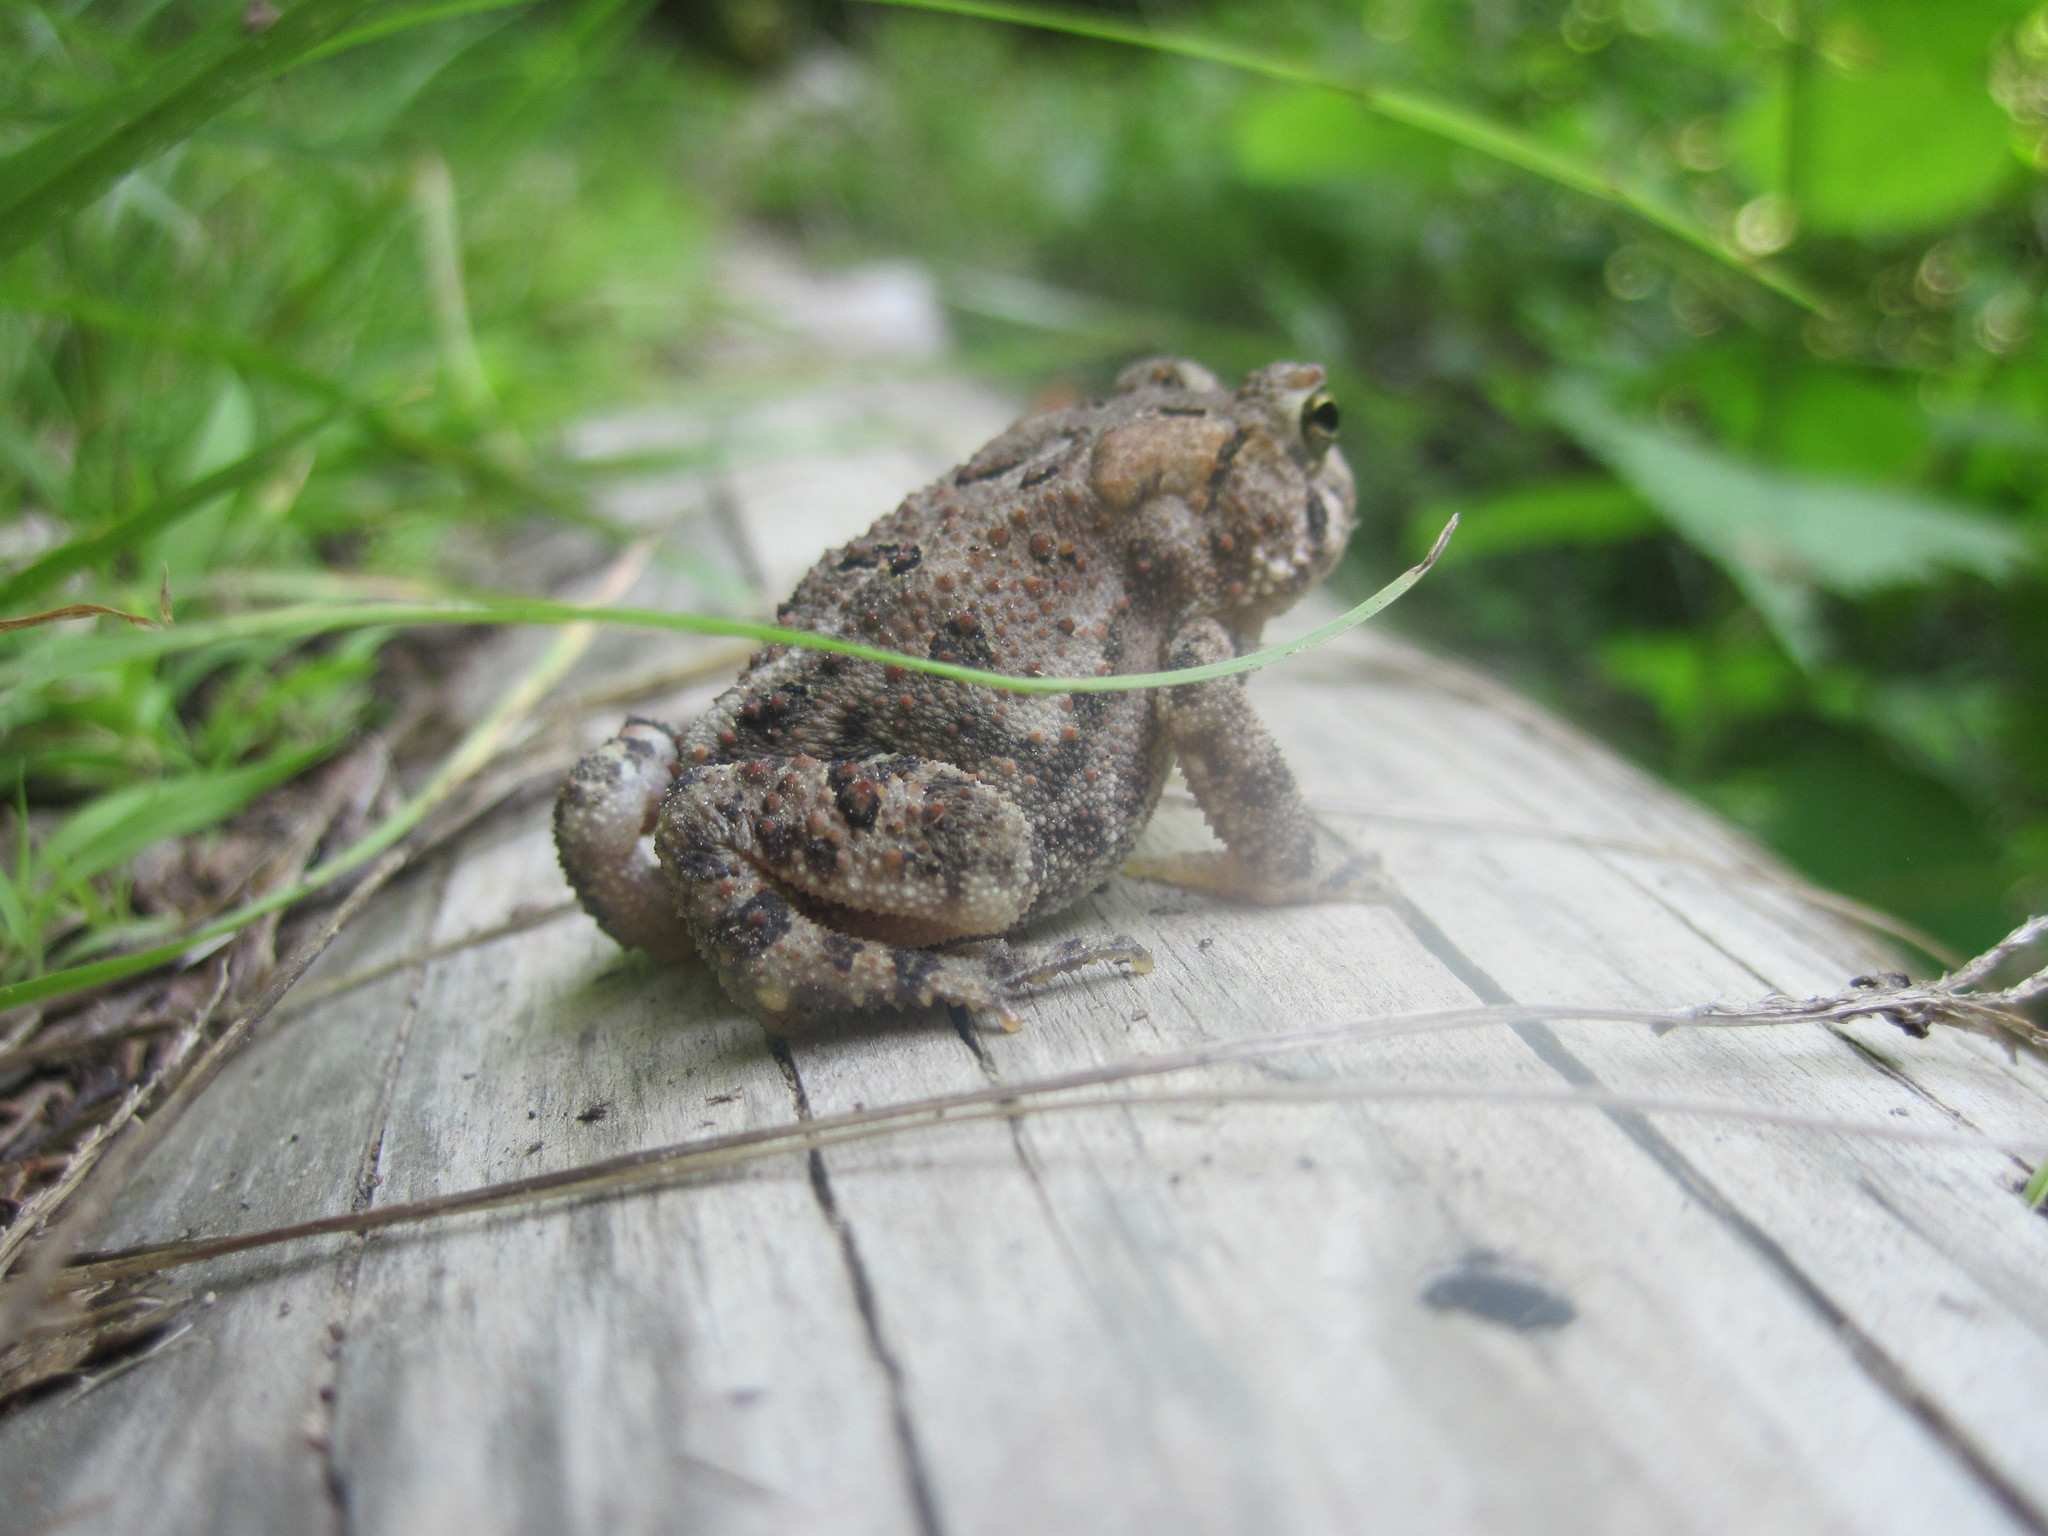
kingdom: Animalia
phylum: Chordata
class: Amphibia
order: Anura
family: Bufonidae
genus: Anaxyrus
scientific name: Anaxyrus americanus
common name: American toad
